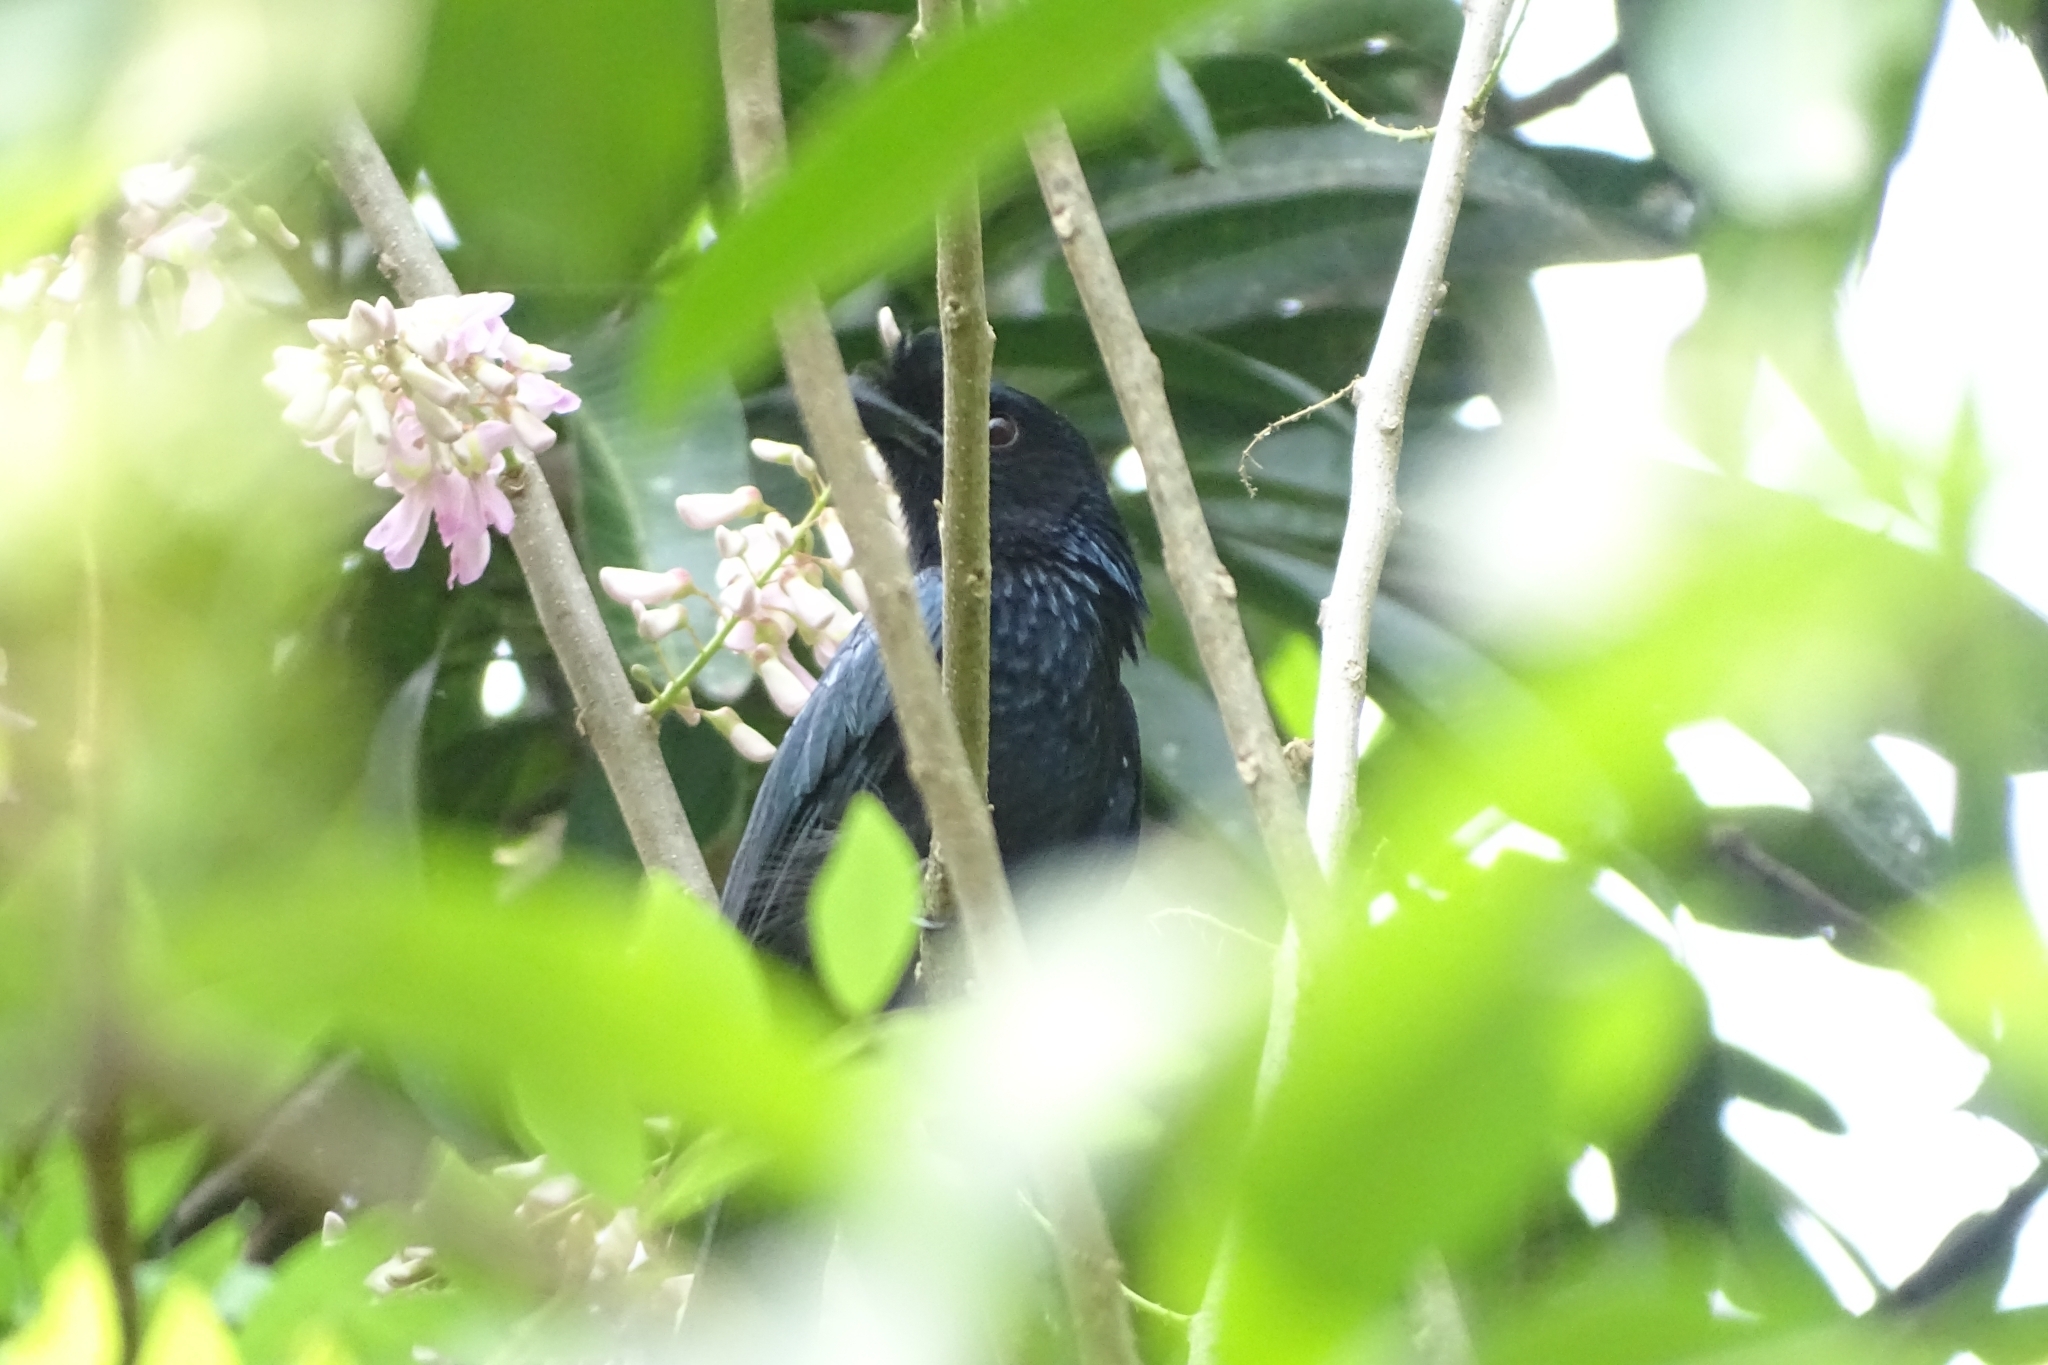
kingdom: Animalia
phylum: Chordata
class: Aves
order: Passeriformes
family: Dicruridae
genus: Dicrurus
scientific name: Dicrurus paradiseus
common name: Greater racket-tailed drongo
